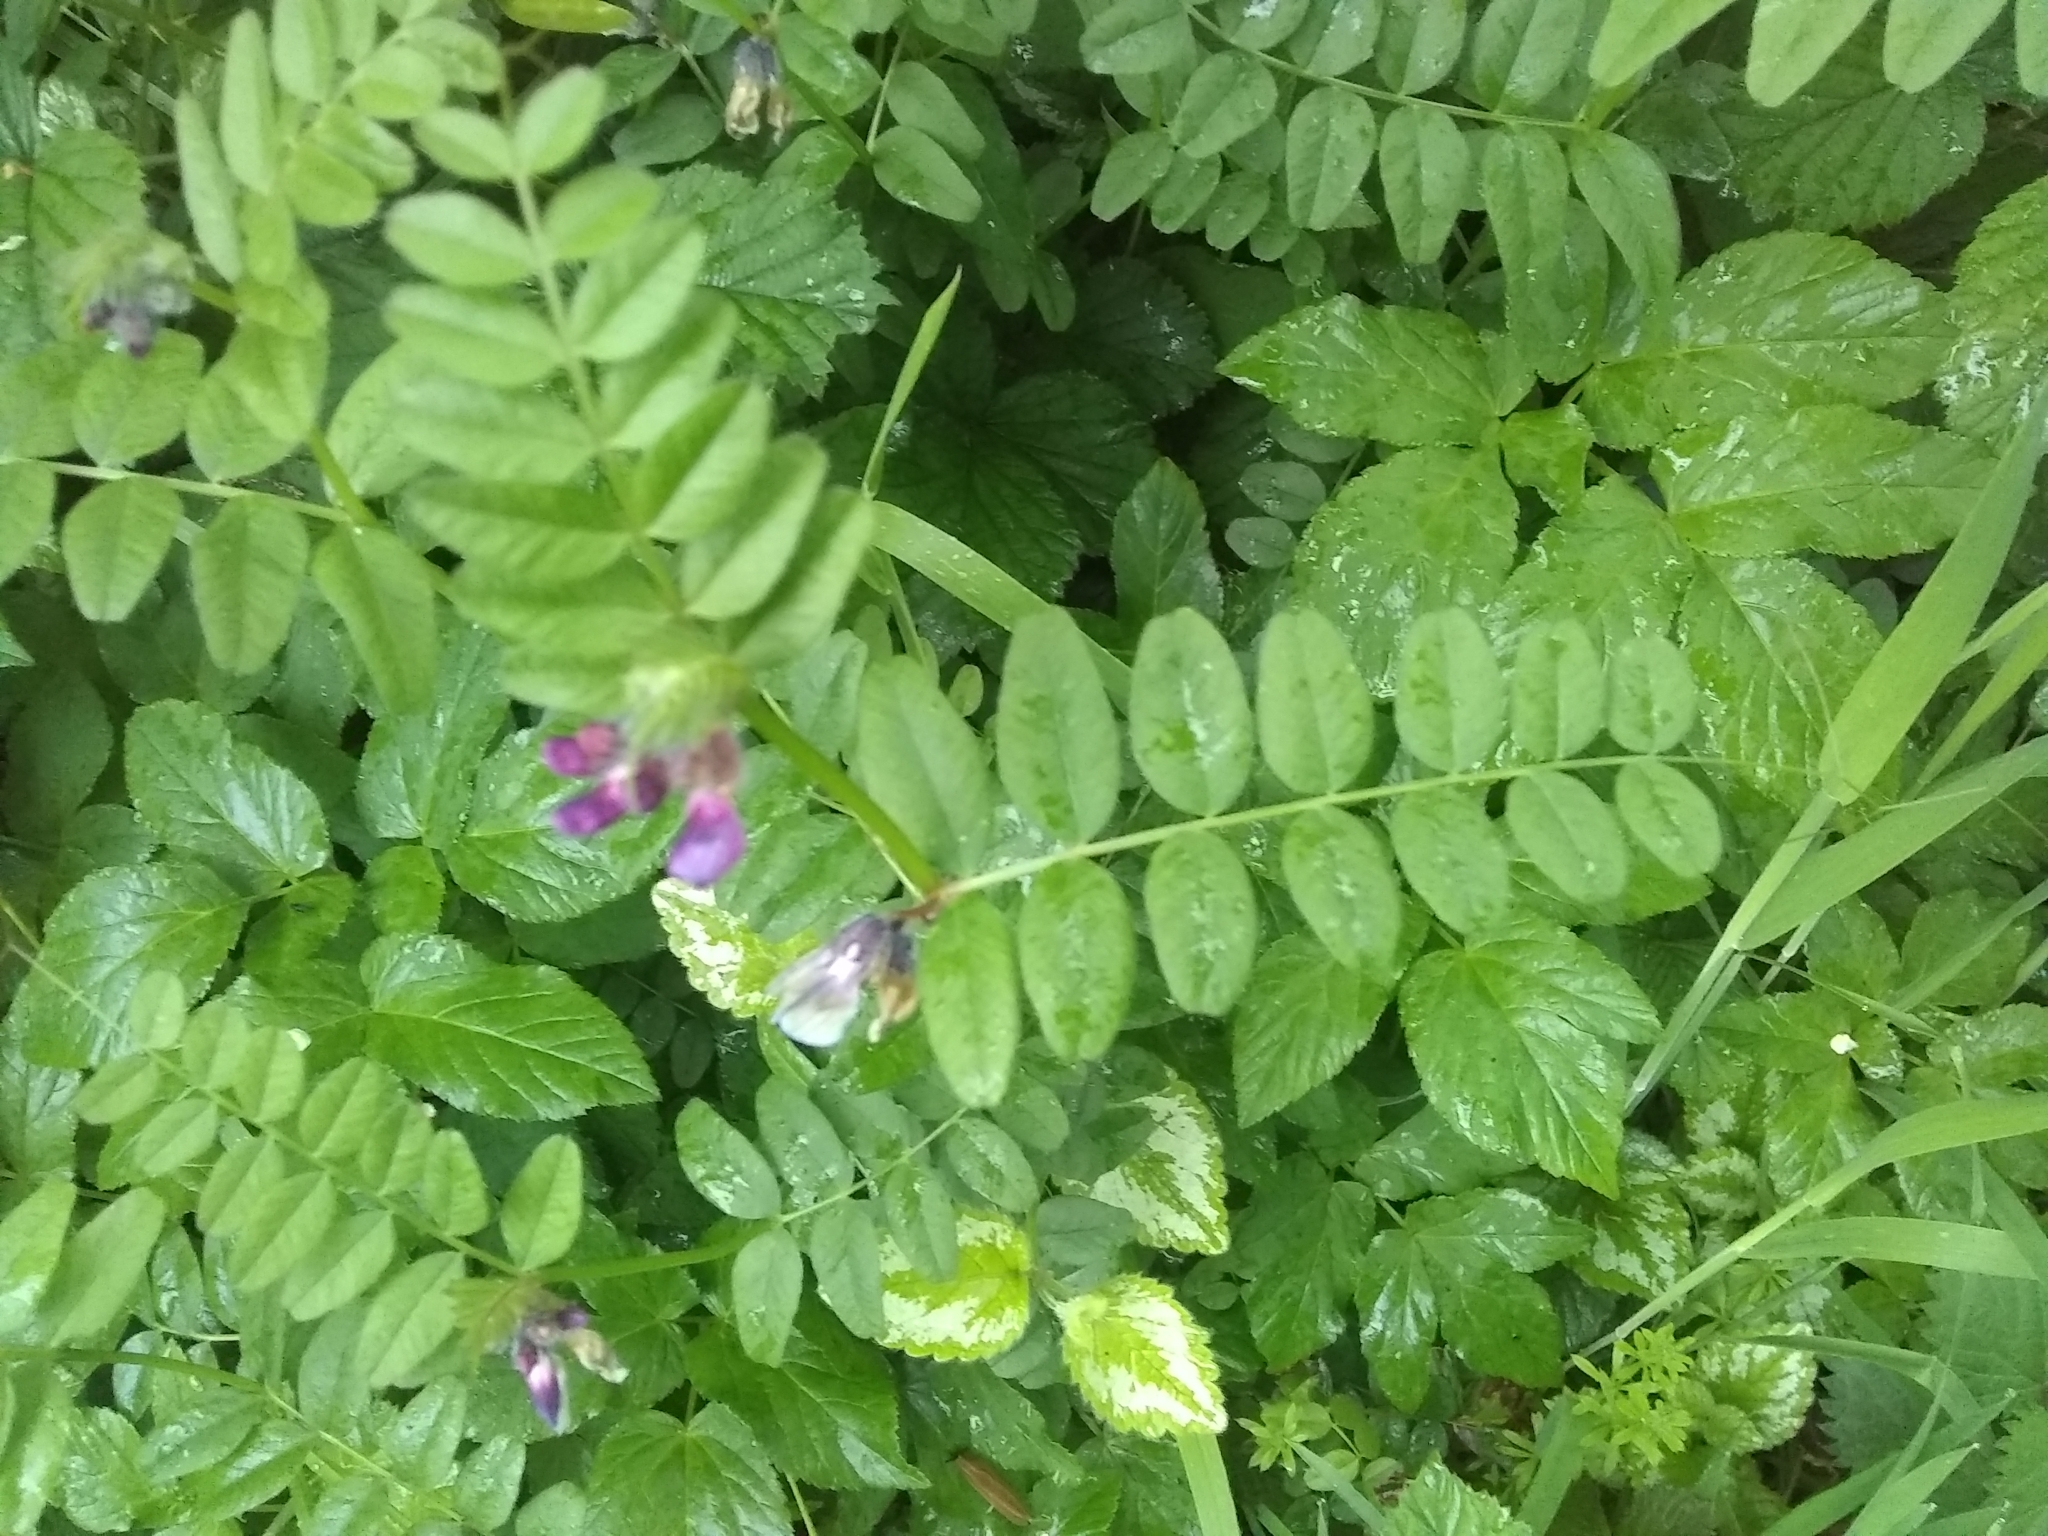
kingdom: Plantae
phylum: Tracheophyta
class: Magnoliopsida
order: Fabales
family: Fabaceae
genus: Vicia
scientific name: Vicia sepium
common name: Bush vetch
